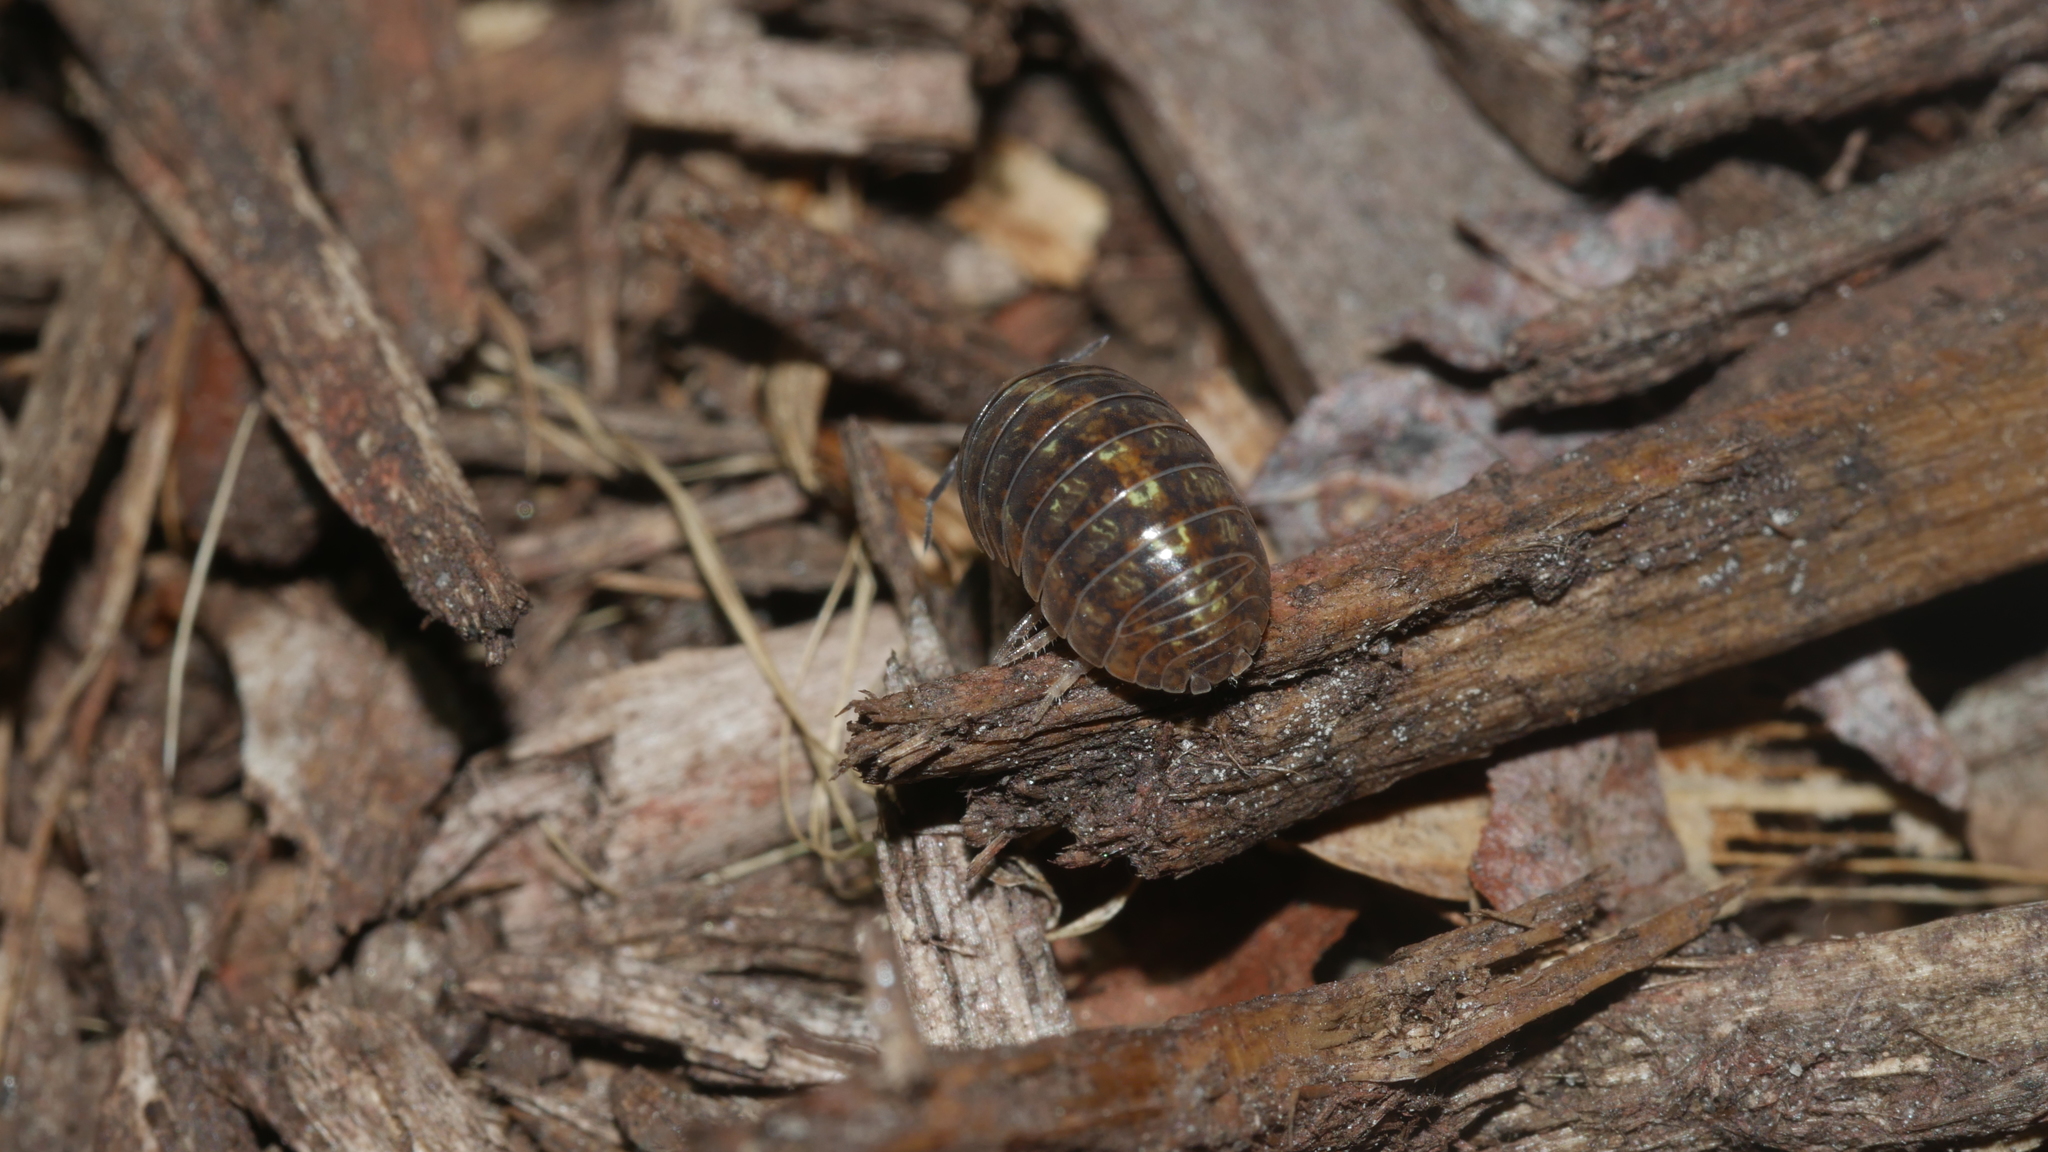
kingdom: Animalia
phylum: Arthropoda
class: Malacostraca
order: Isopoda
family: Armadillidiidae
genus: Armadillidium
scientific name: Armadillidium vulgare
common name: Common pill woodlouse
